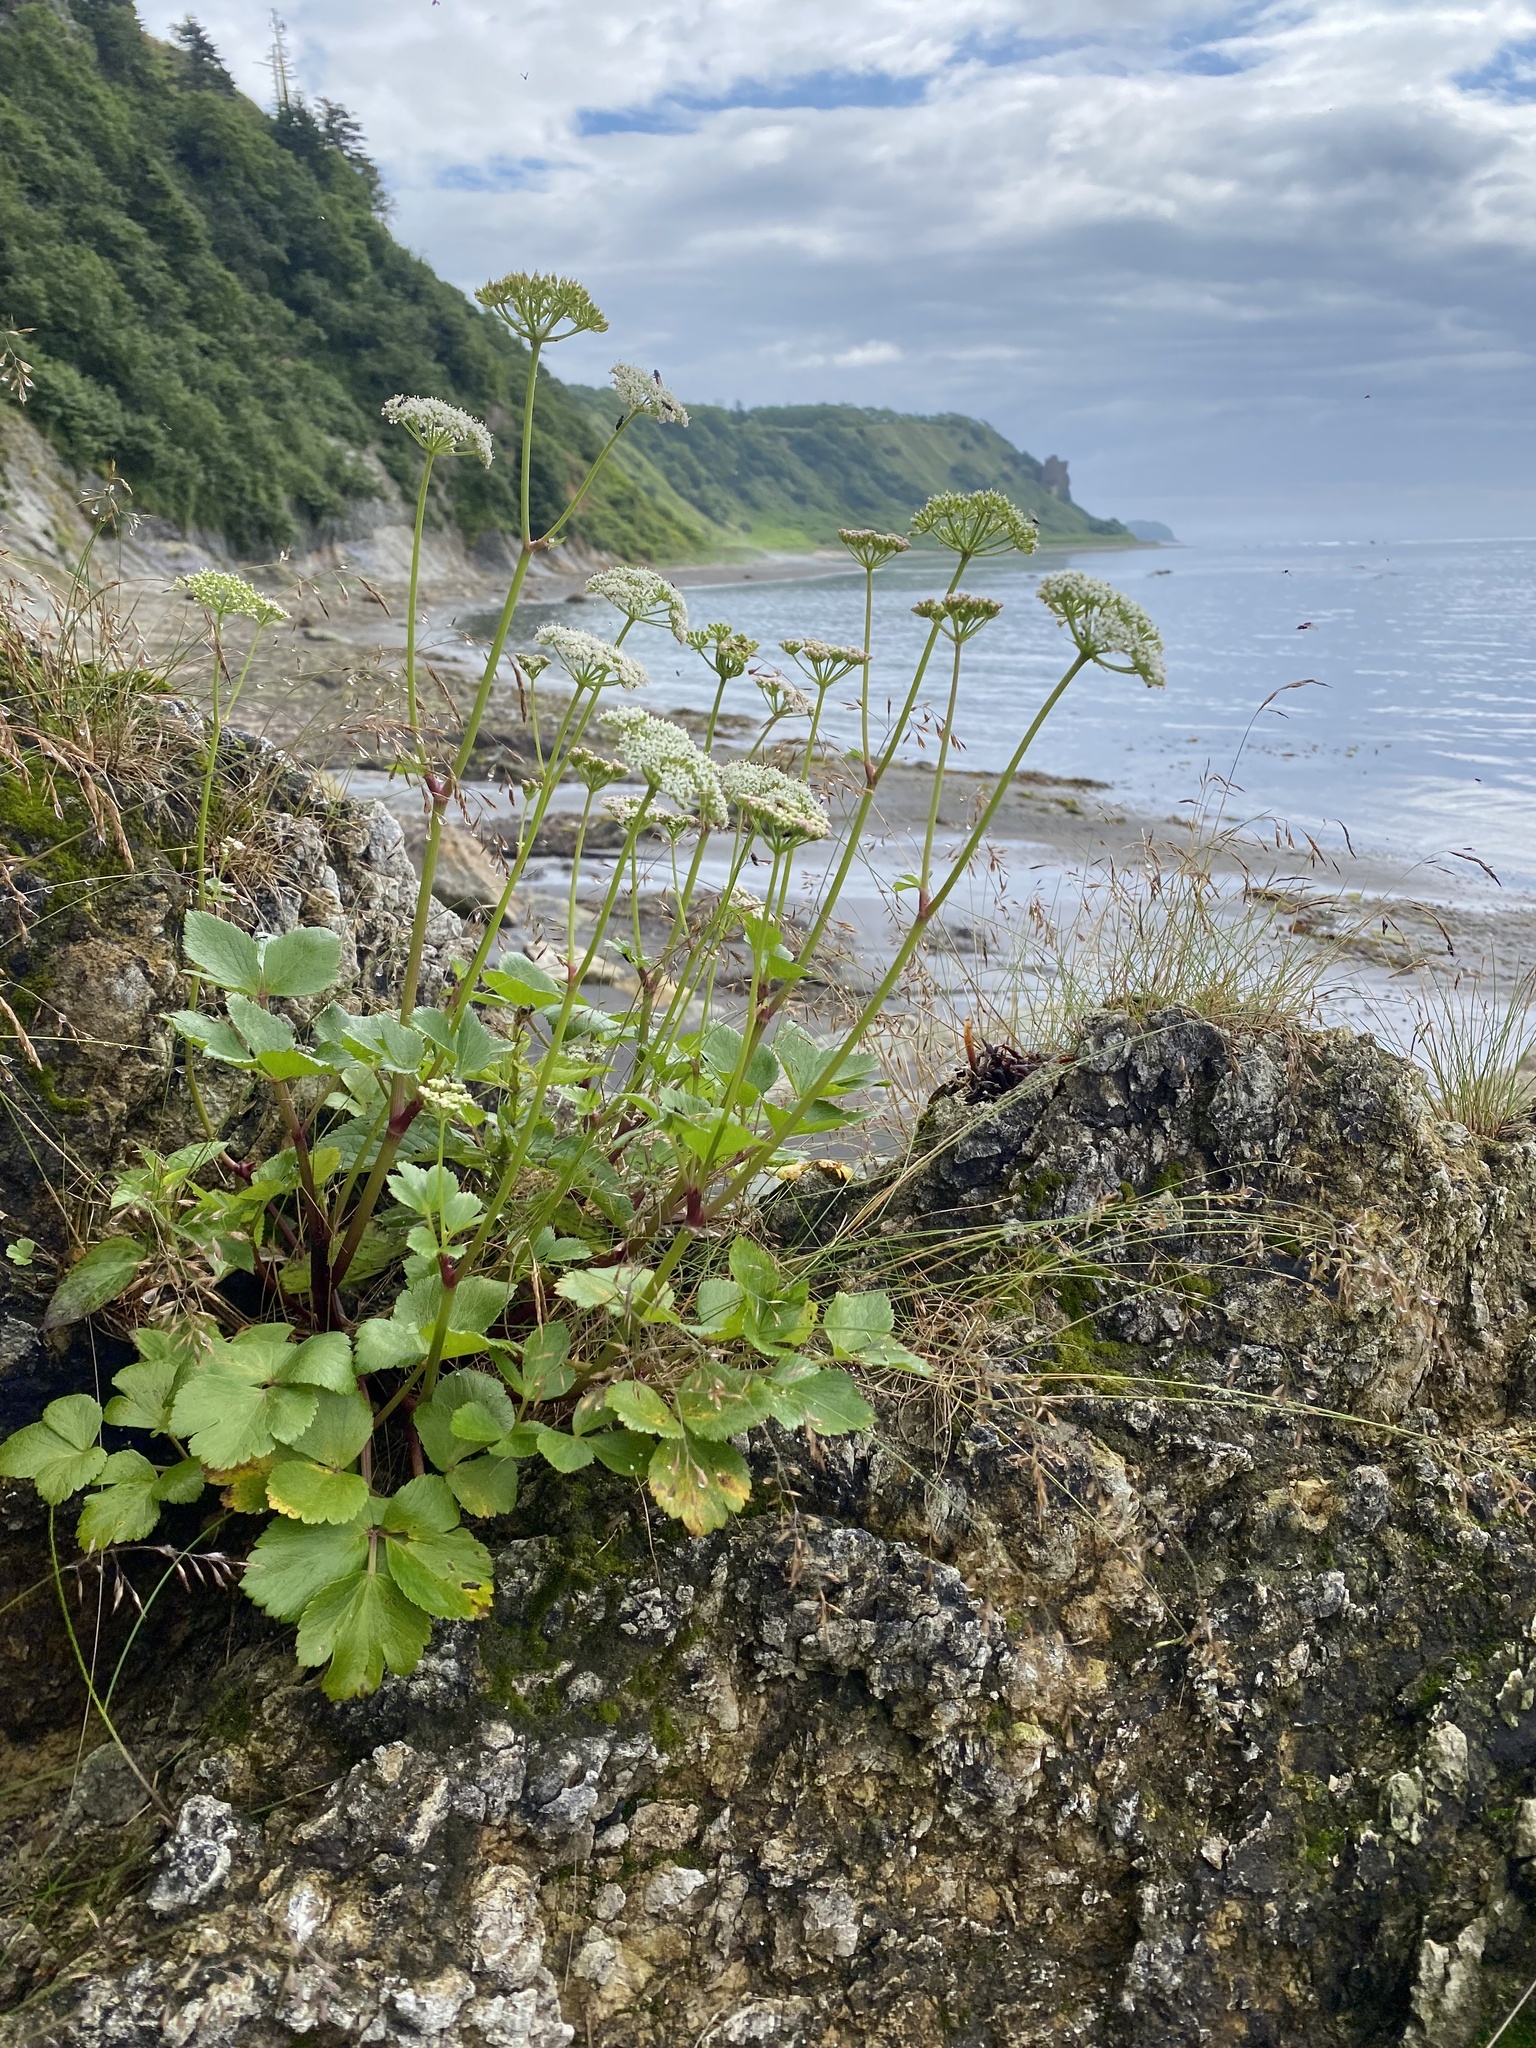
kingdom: Plantae
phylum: Tracheophyta
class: Magnoliopsida
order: Apiales
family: Apiaceae
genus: Ligusticum
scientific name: Ligusticum scothicum
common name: Beach lovage
